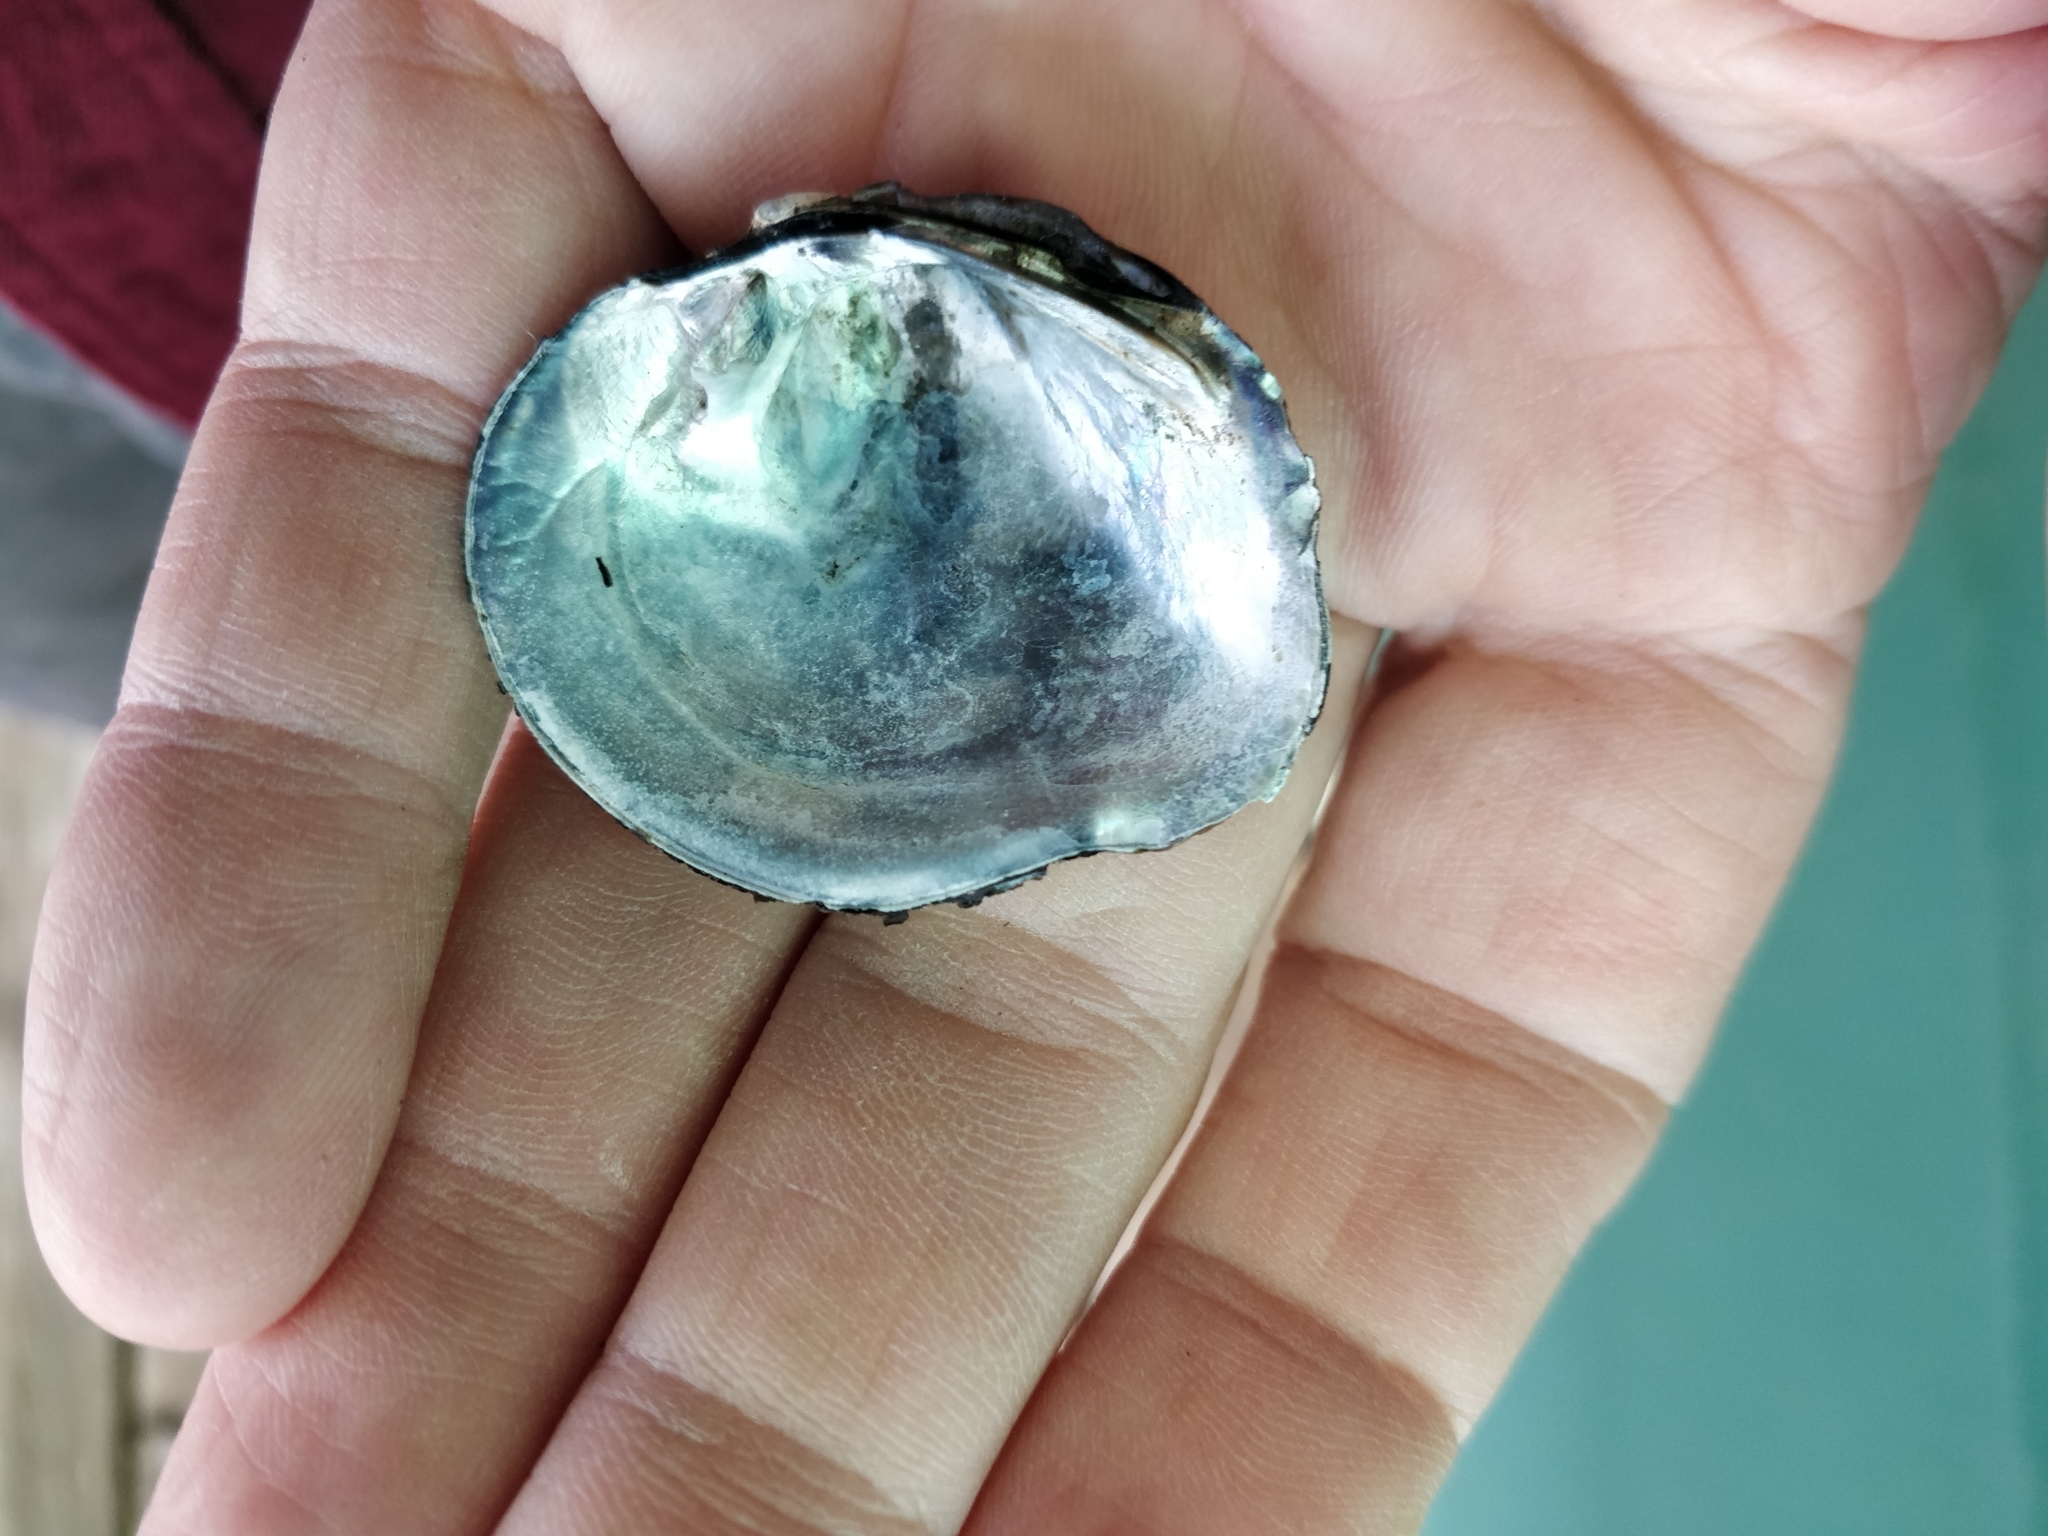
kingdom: Animalia
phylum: Mollusca
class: Bivalvia
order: Unionida
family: Unionidae
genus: Quadrula
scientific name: Quadrula quadrula
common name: Mapleleaf
